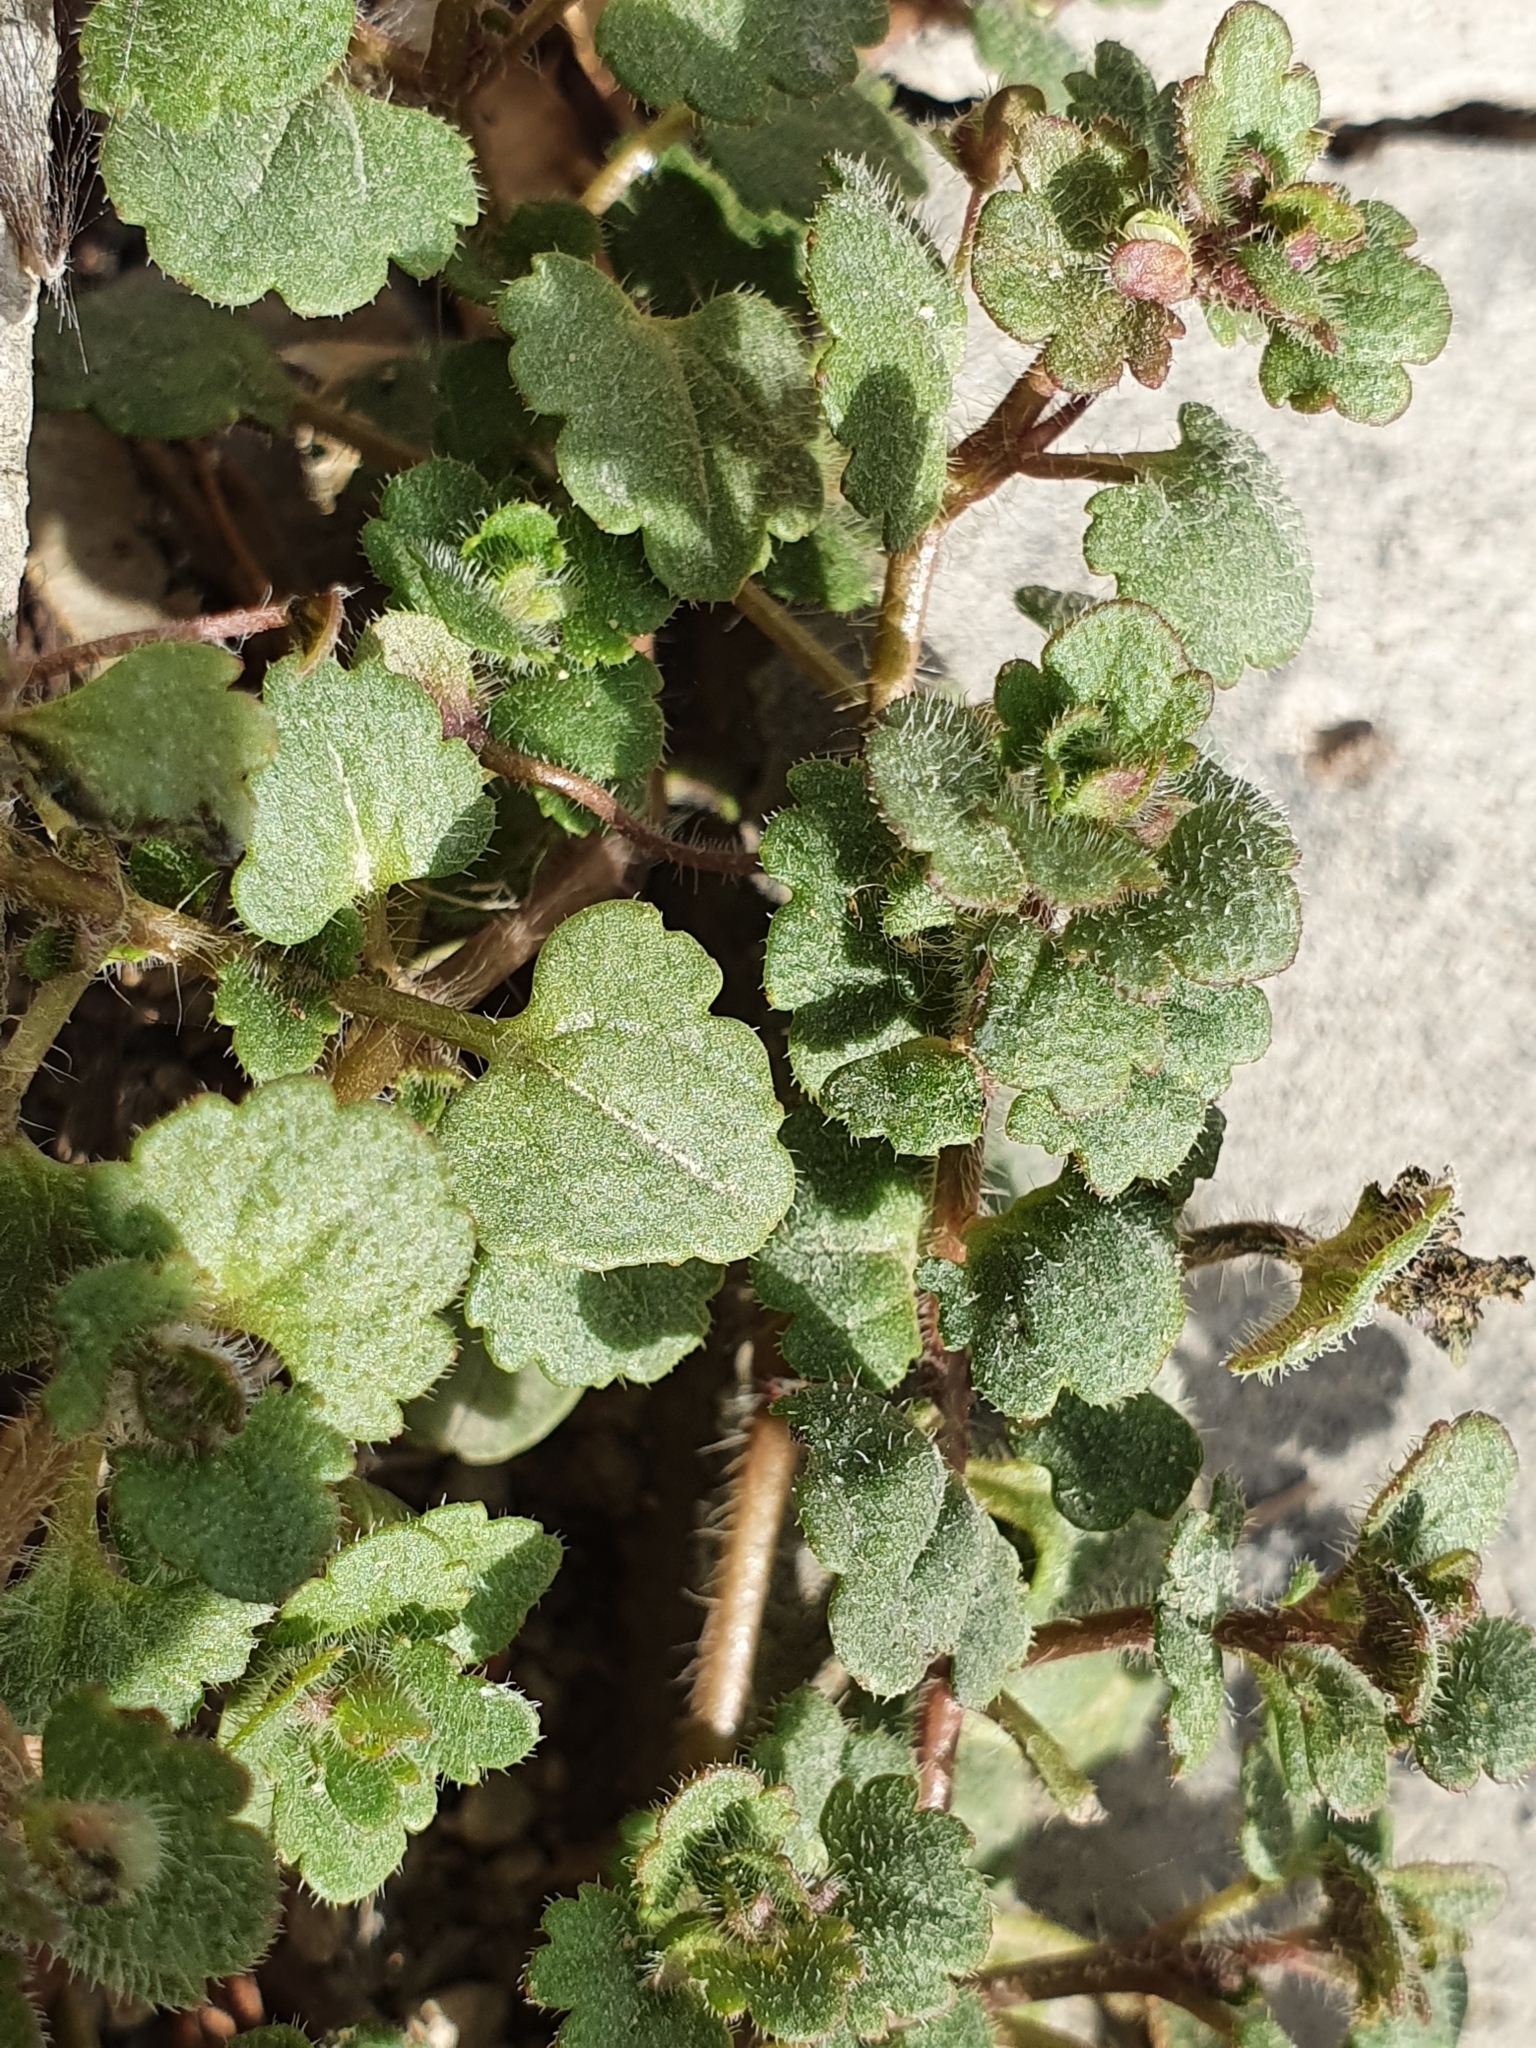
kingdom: Plantae
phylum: Tracheophyta
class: Magnoliopsida
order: Lamiales
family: Plantaginaceae
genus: Veronica
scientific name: Veronica cymbalaria
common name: Pale speedwell
